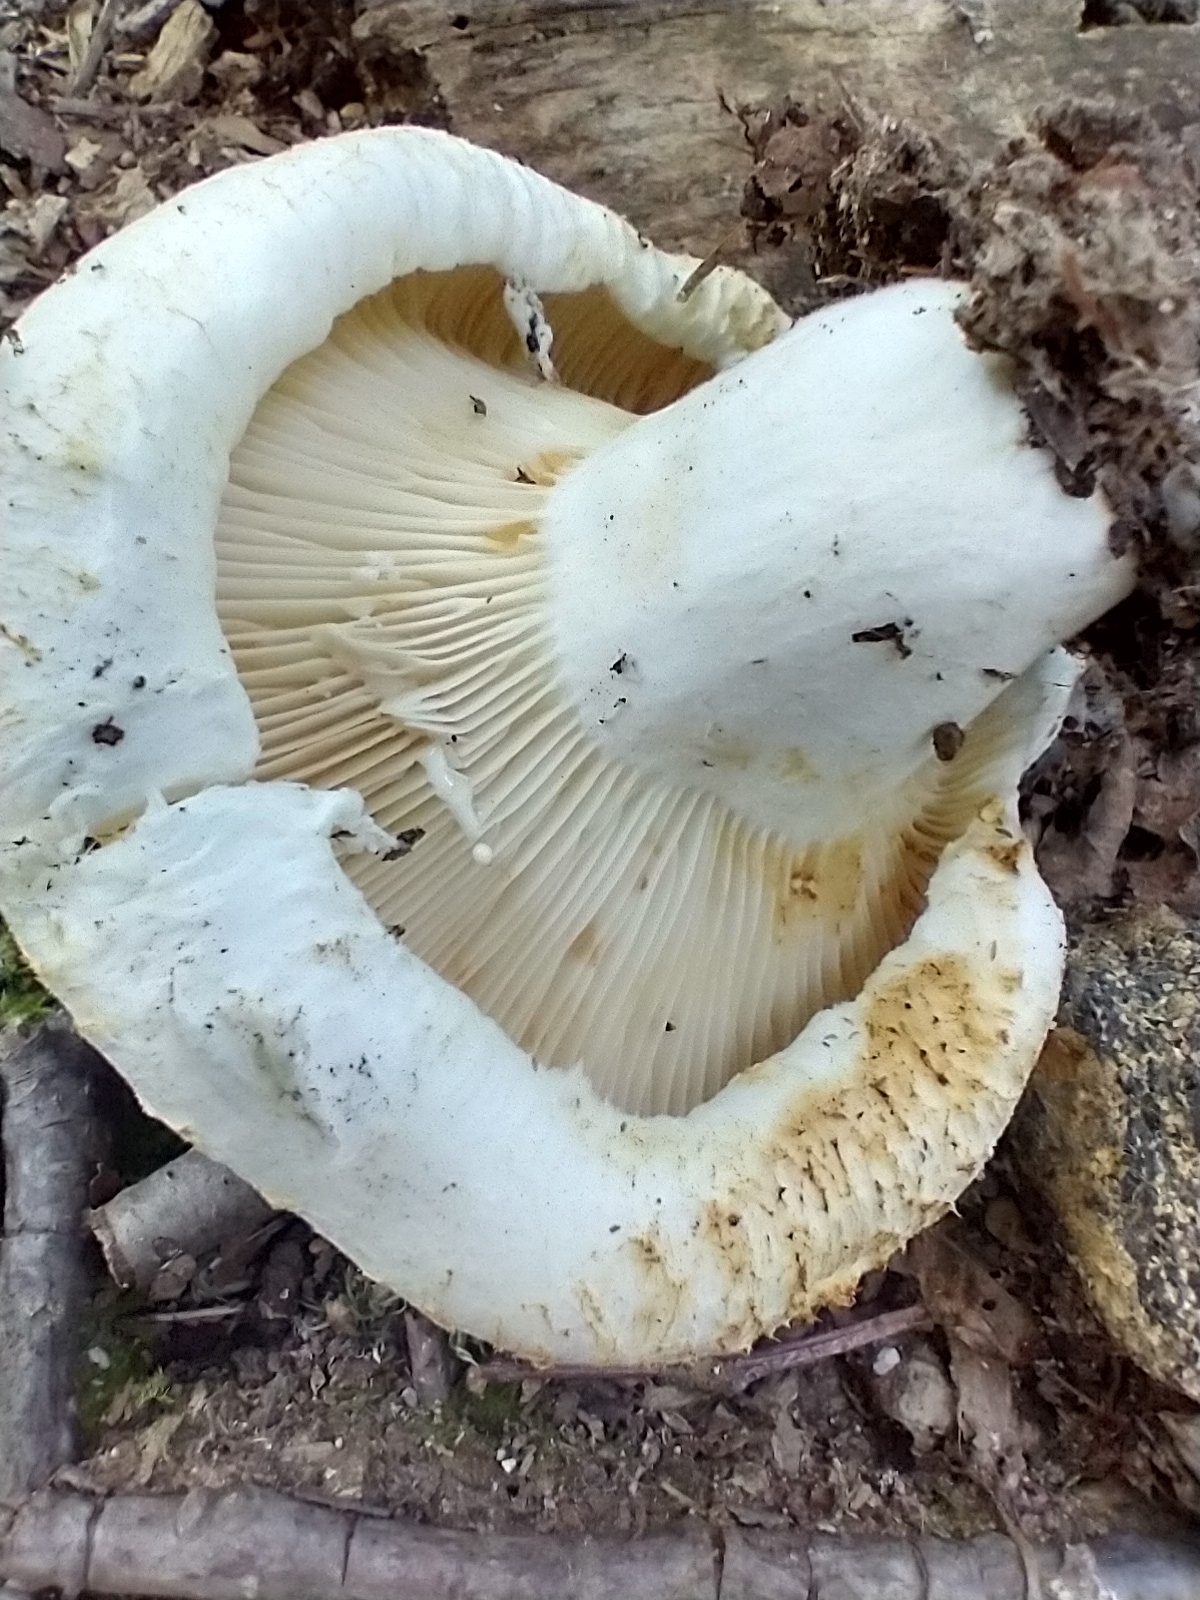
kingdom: Fungi
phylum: Basidiomycota
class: Agaricomycetes
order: Russulales
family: Russulaceae
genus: Lactifluus
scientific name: Lactifluus
